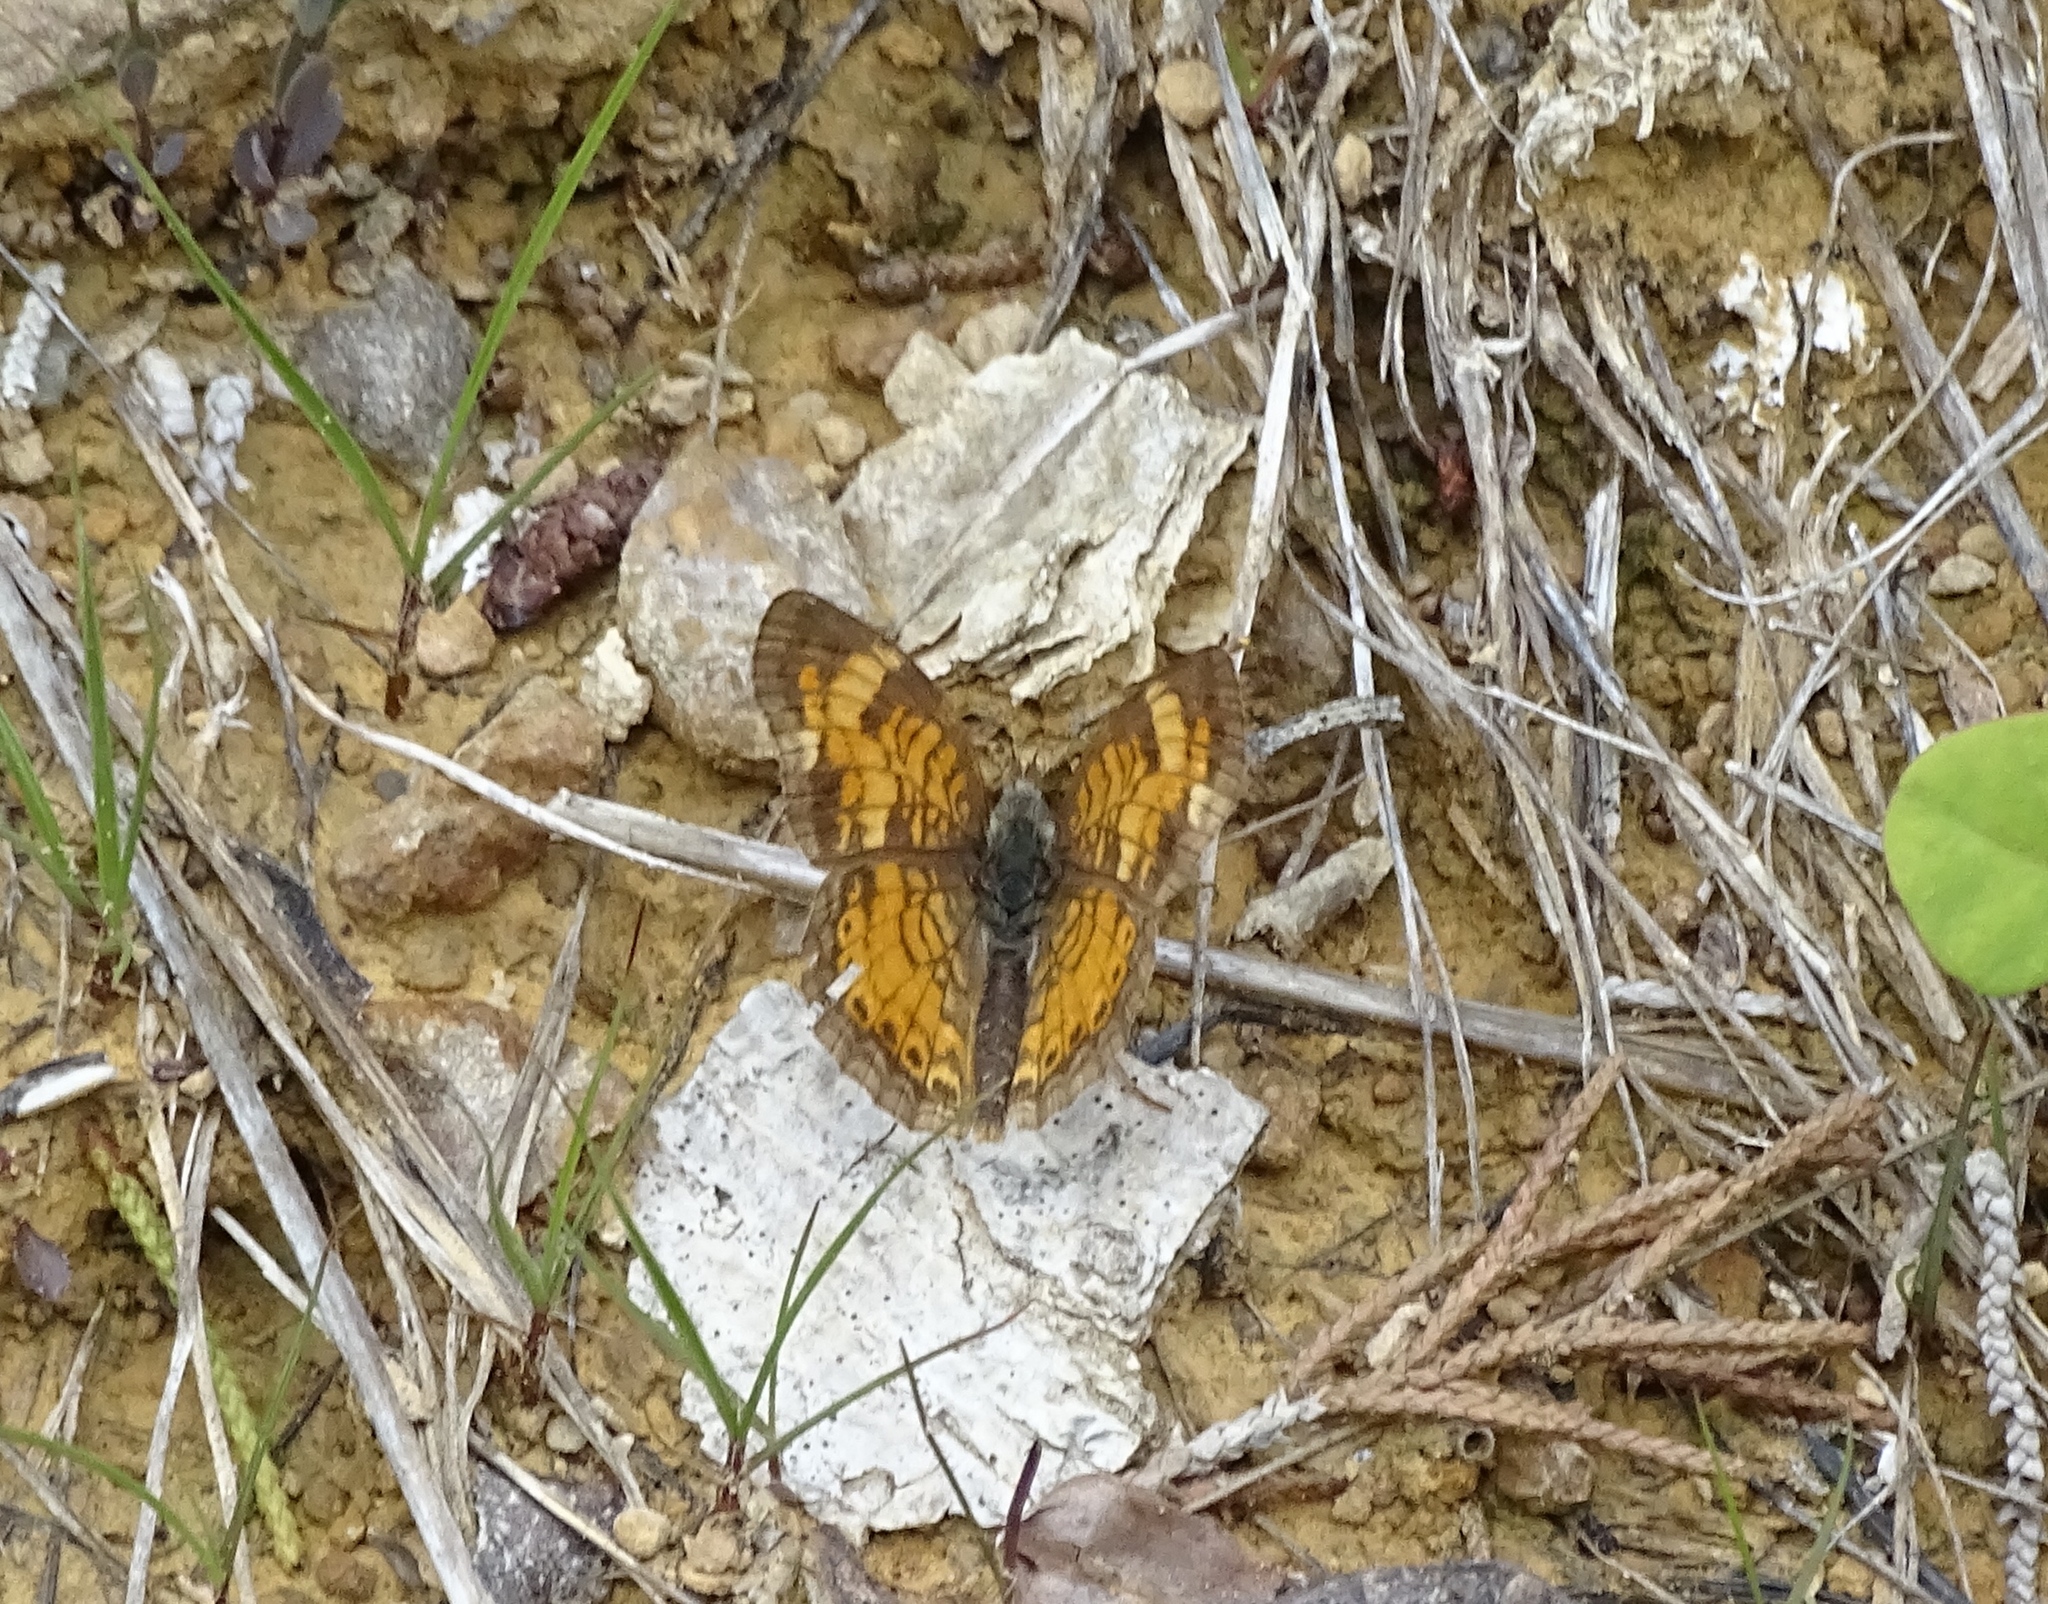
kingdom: Animalia
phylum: Arthropoda
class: Insecta
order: Lepidoptera
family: Nymphalidae
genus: Phyciodes
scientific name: Phyciodes tharos
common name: Pearl crescent
